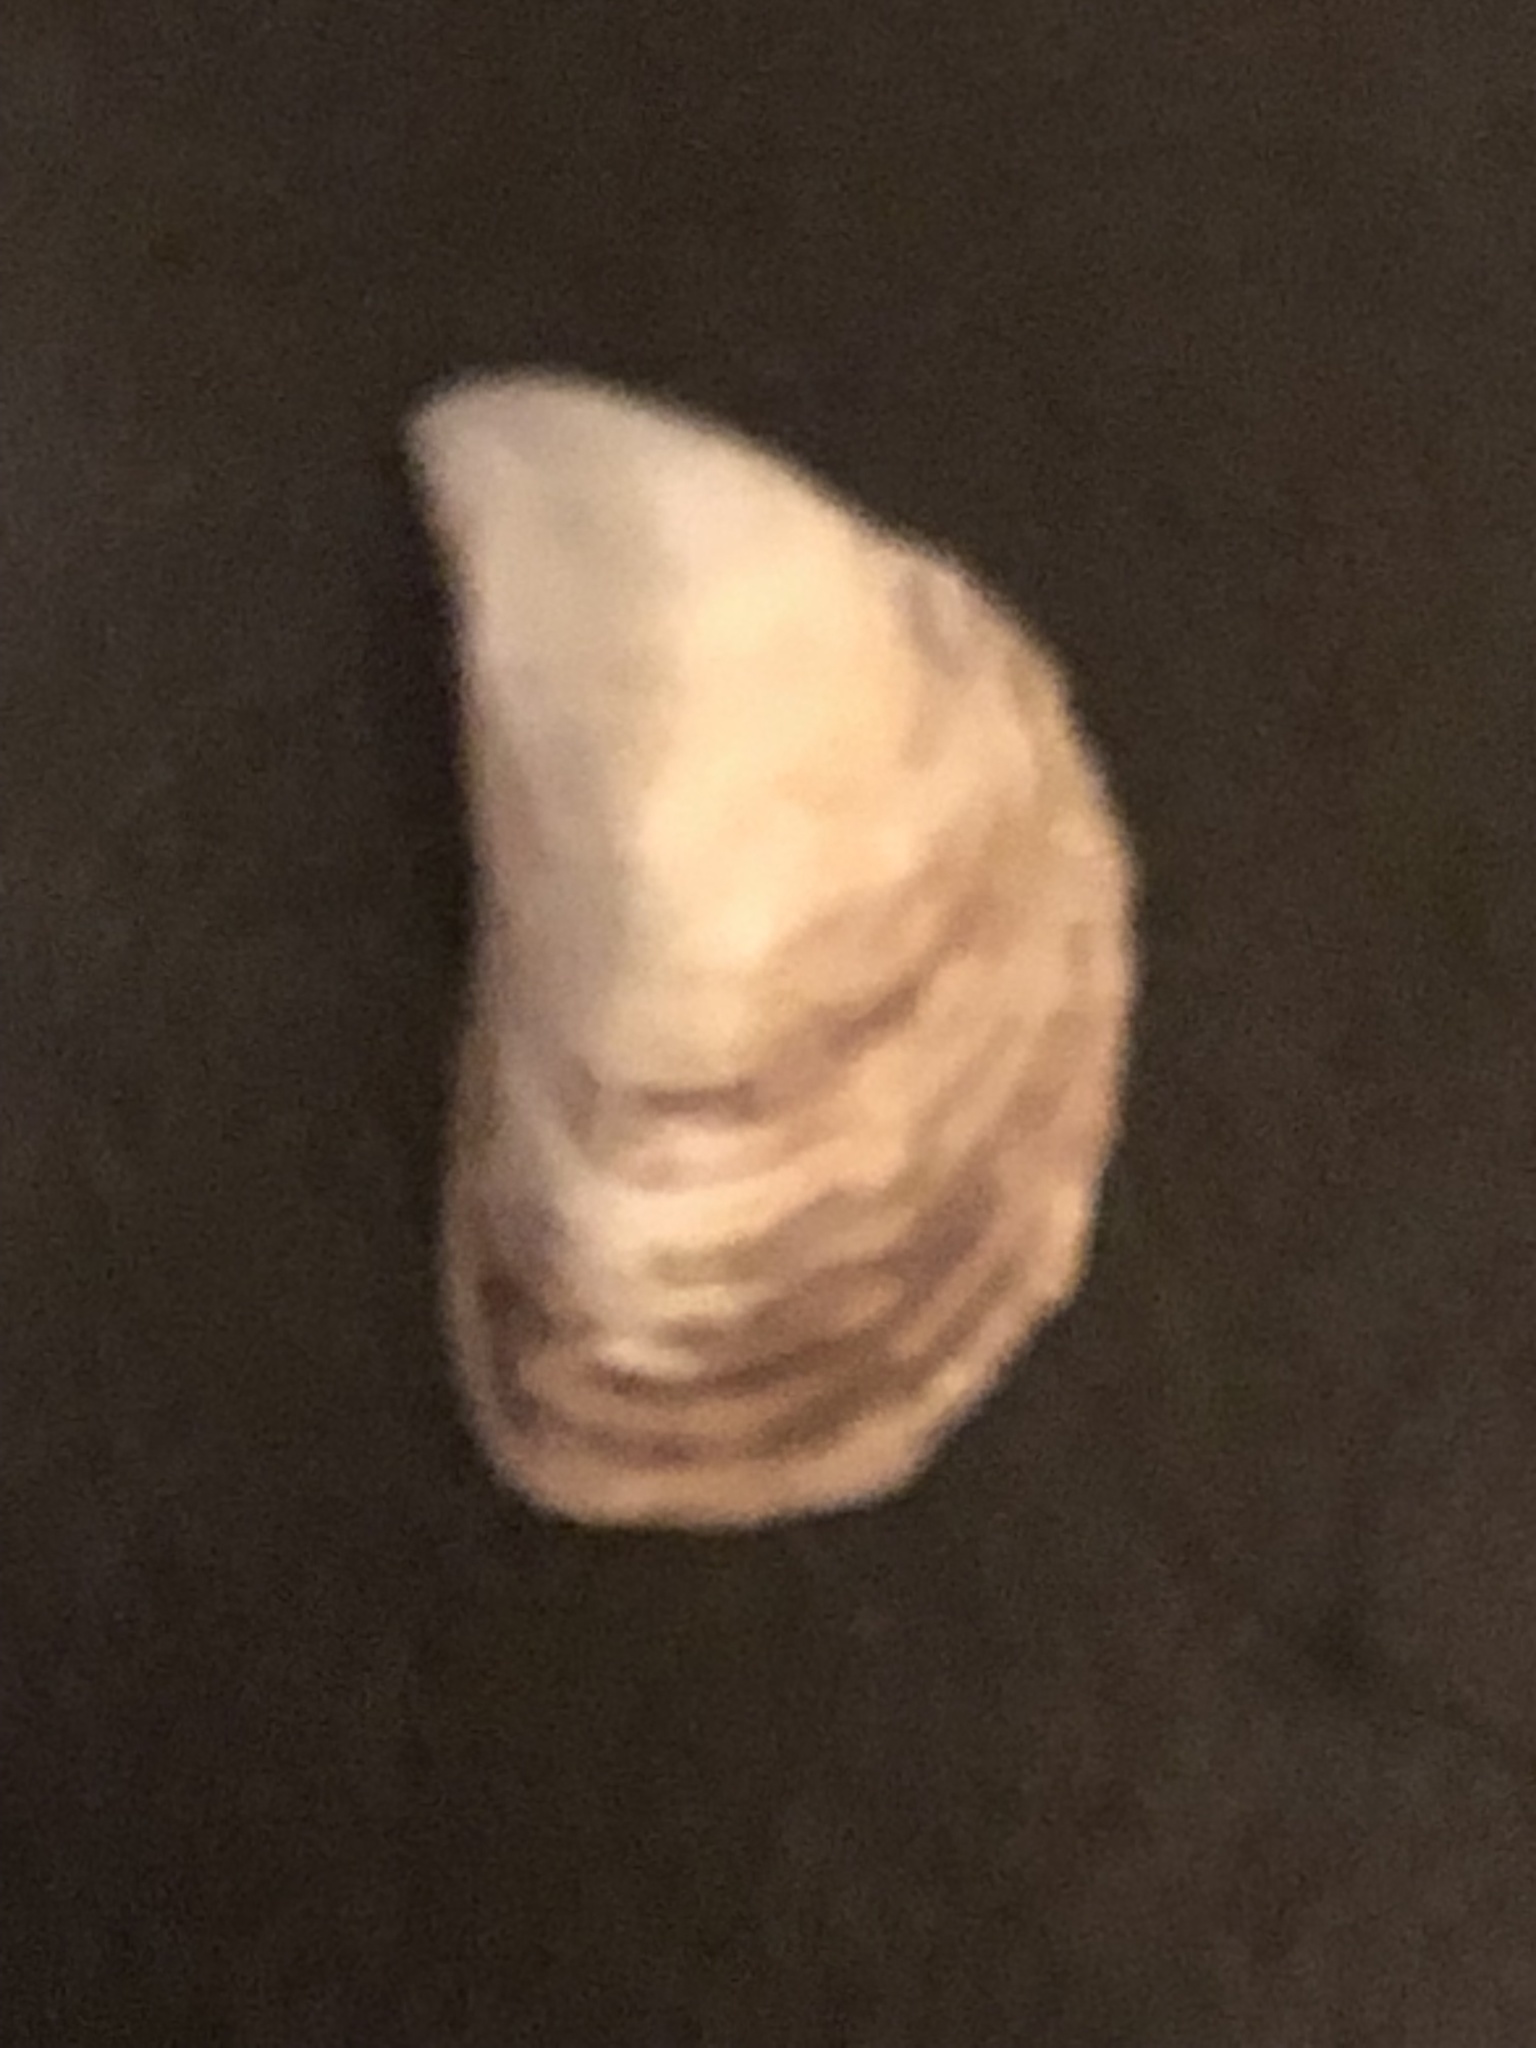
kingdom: Animalia
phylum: Mollusca
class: Bivalvia
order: Myida
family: Dreissenidae
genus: Dreissena
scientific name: Dreissena bugensis
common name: Quagga mussel
